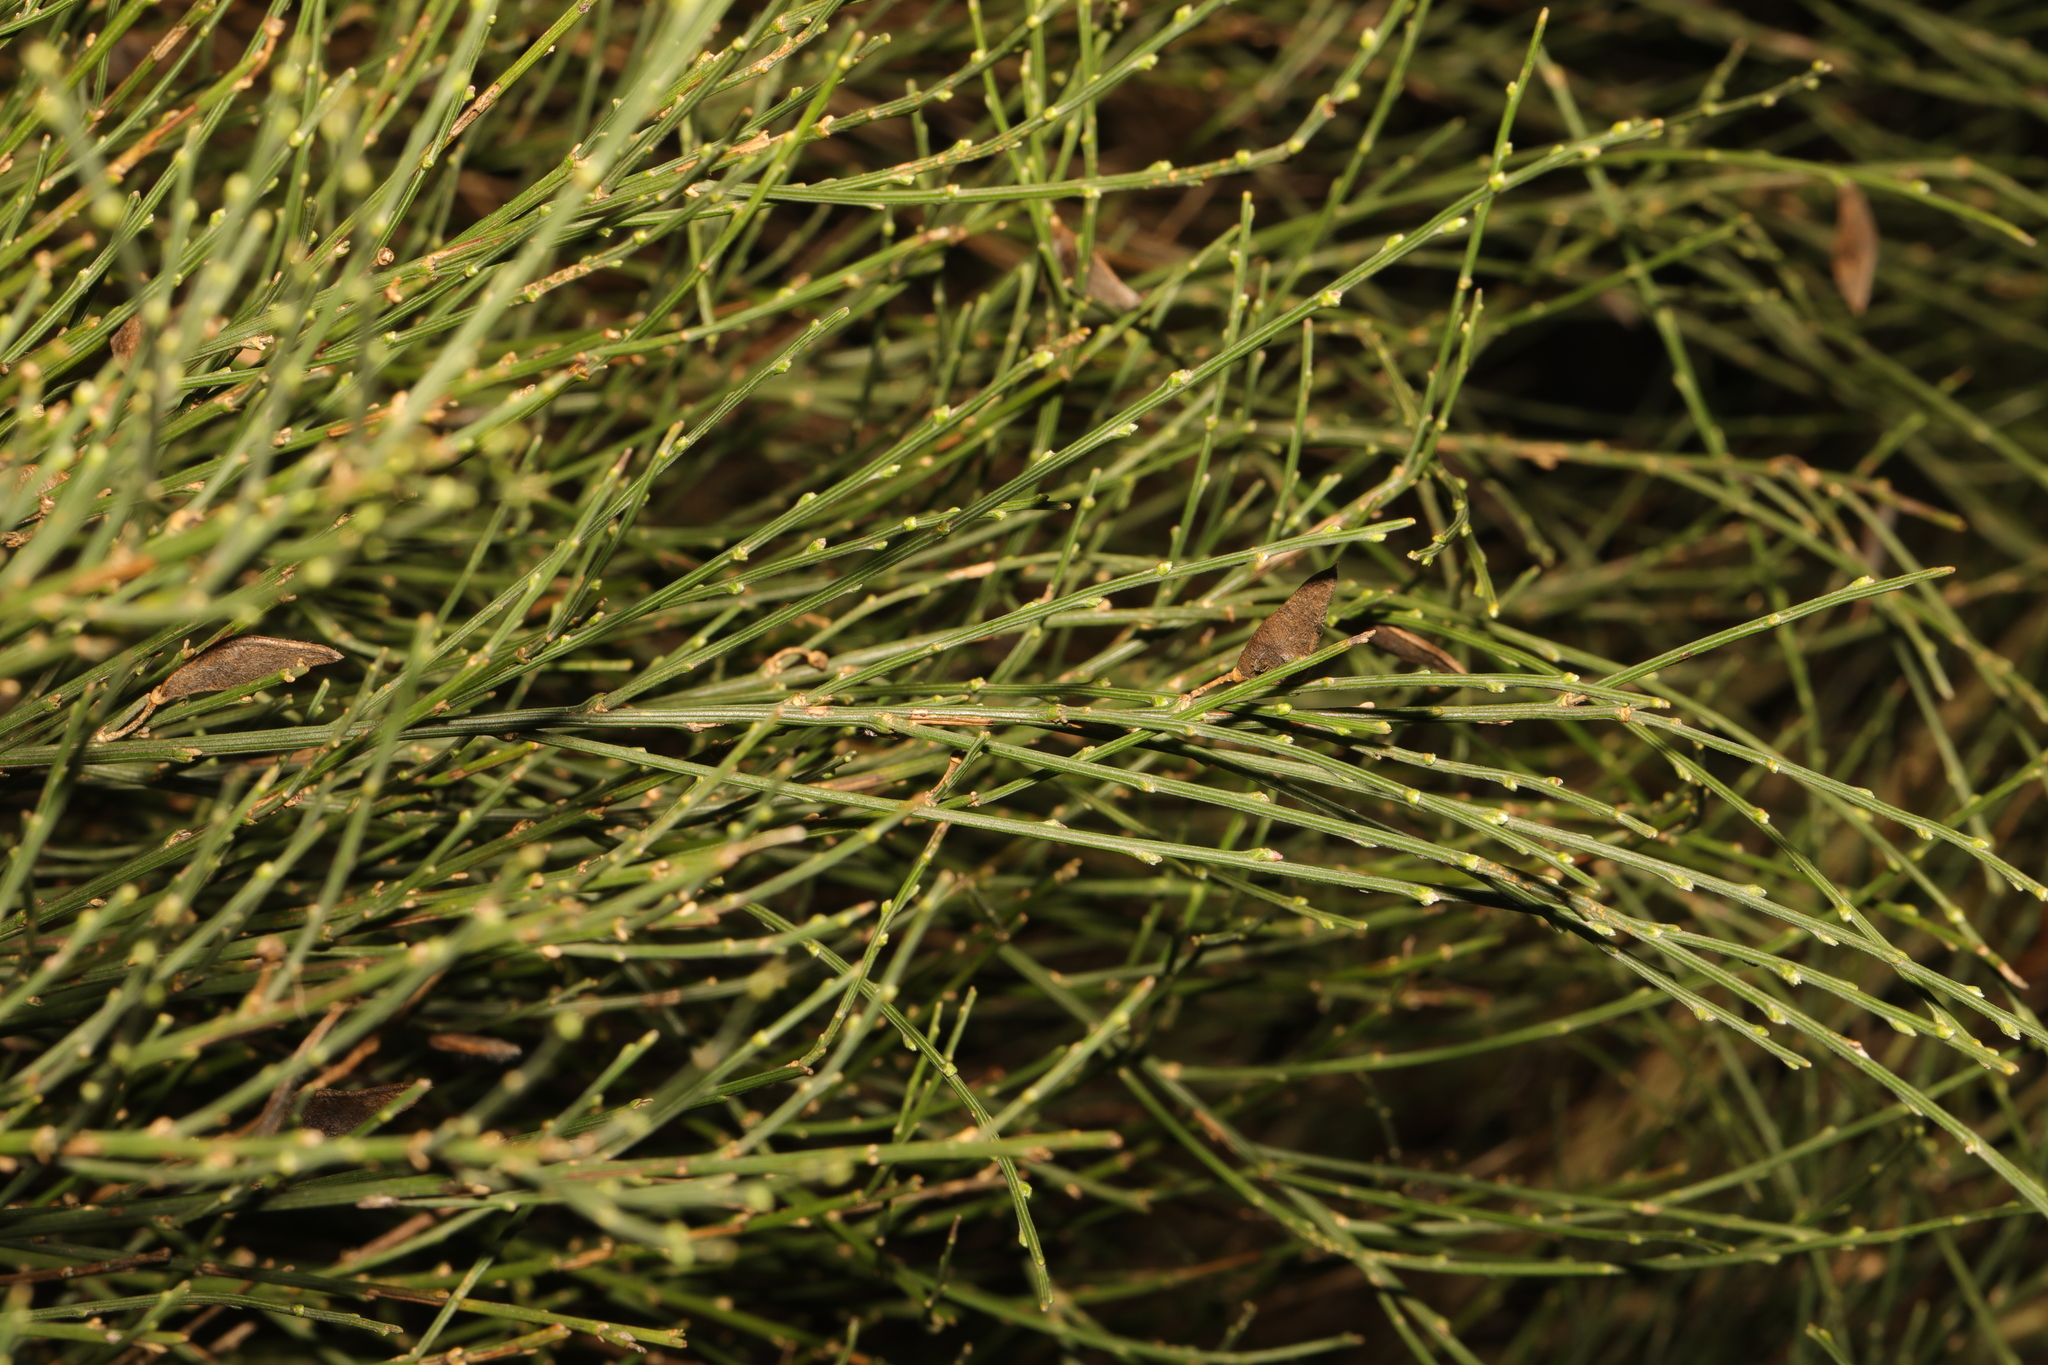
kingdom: Plantae
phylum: Tracheophyta
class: Magnoliopsida
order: Fabales
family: Fabaceae
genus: Cytisus
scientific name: Cytisus scoparius
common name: Scotch broom
